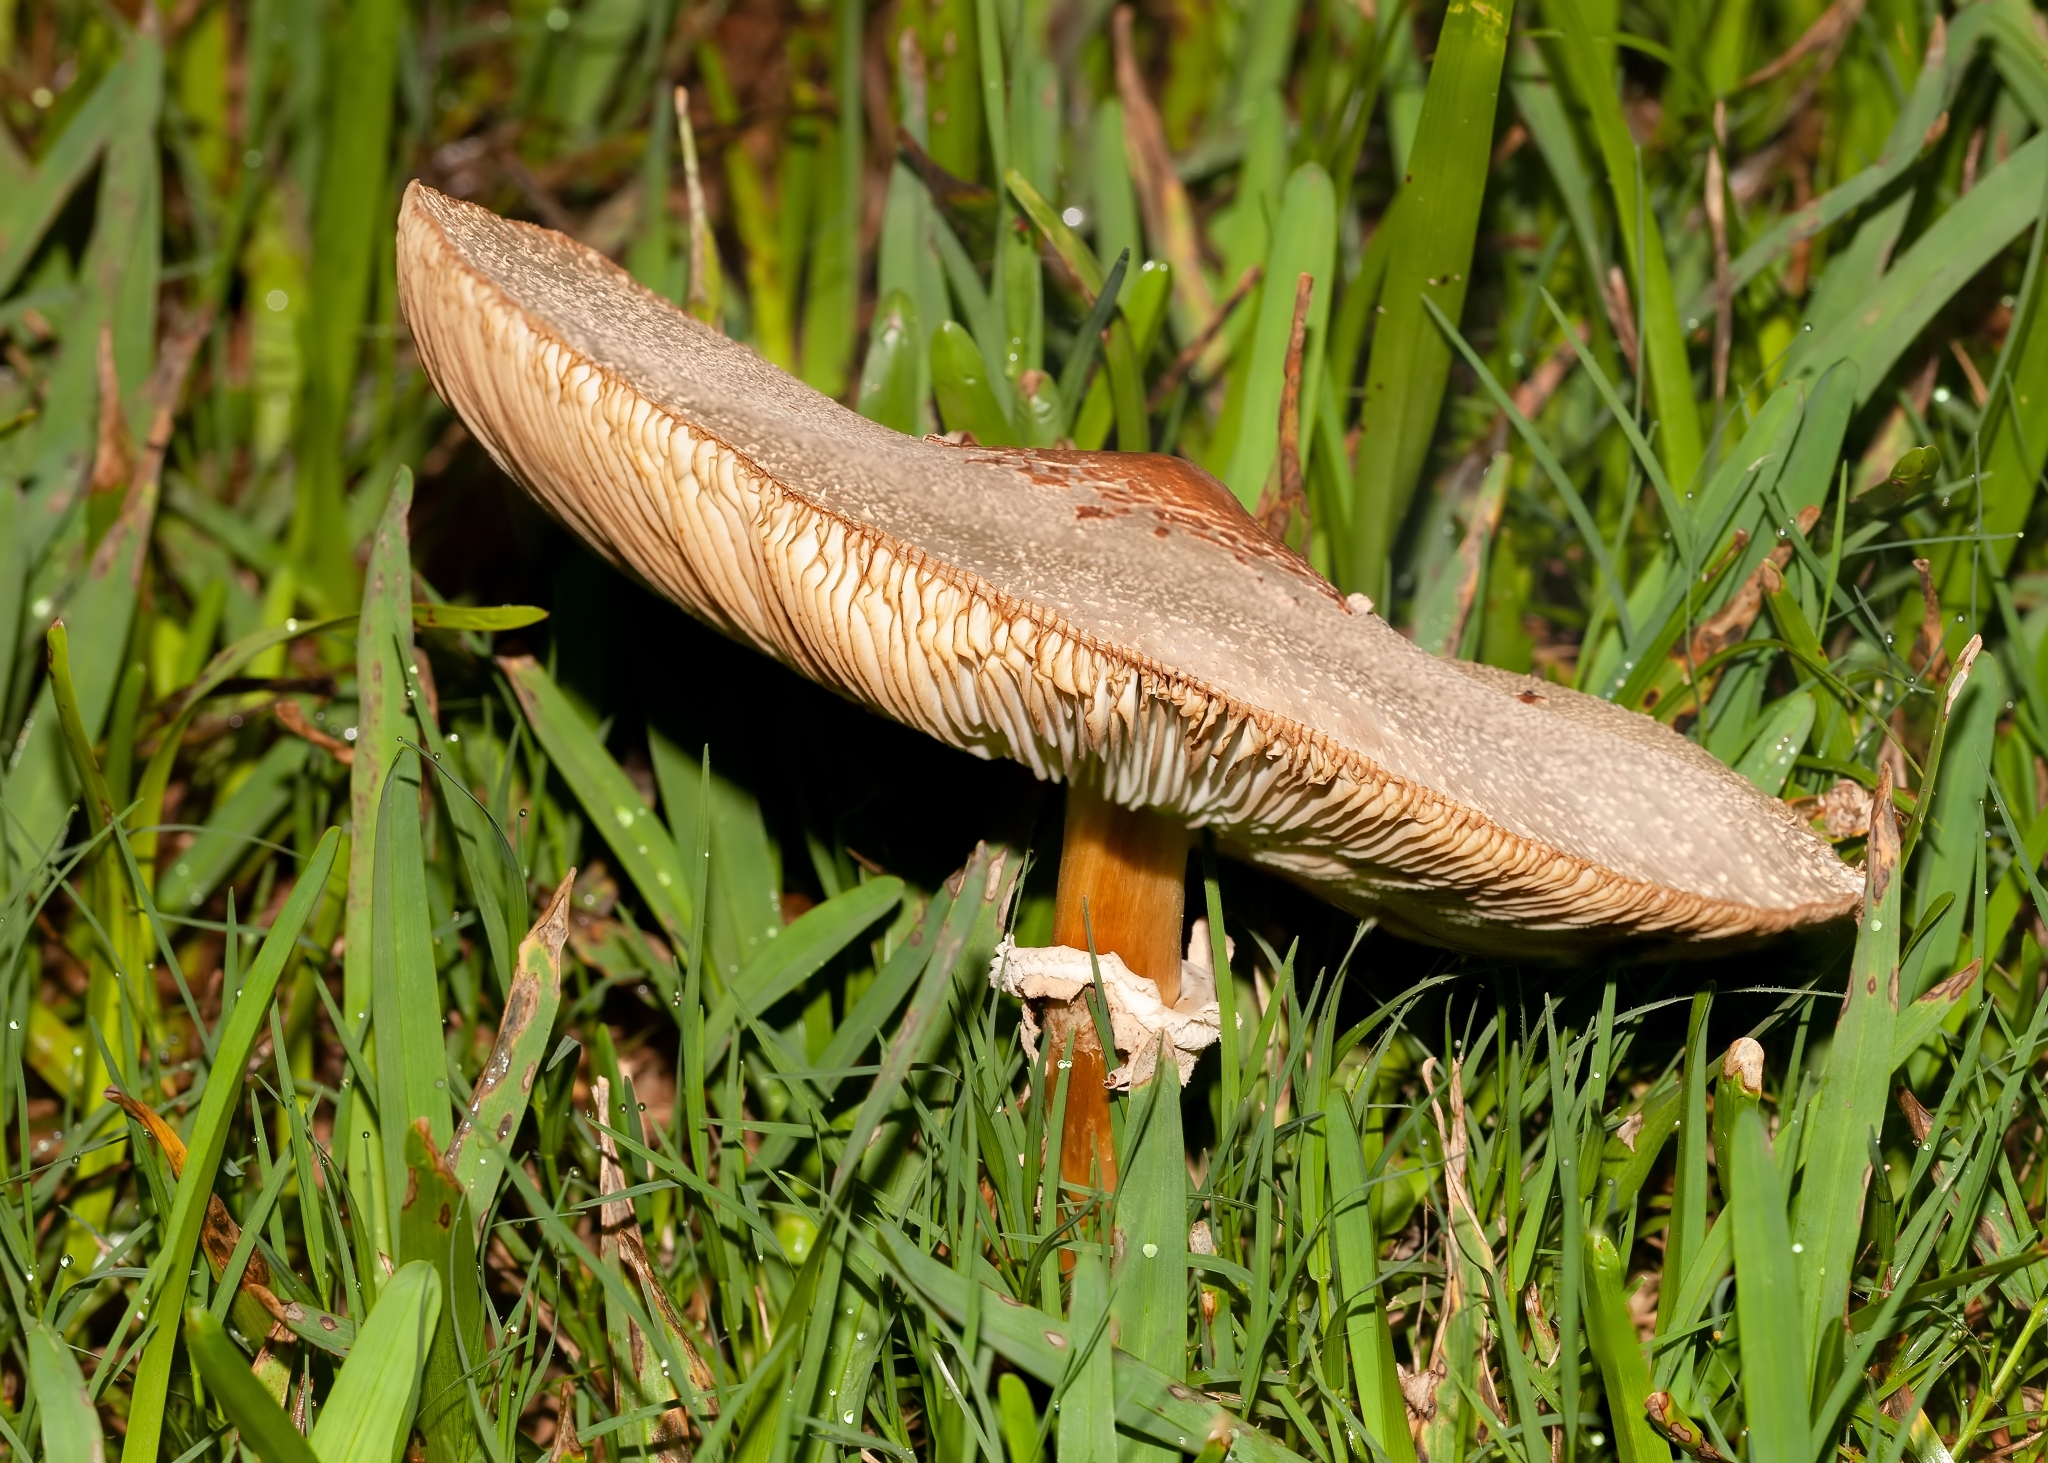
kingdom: Fungi
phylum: Basidiomycota
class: Agaricomycetes
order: Agaricales
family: Agaricaceae
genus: Chlorophyllum
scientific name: Chlorophyllum molybdites
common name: False parasol
